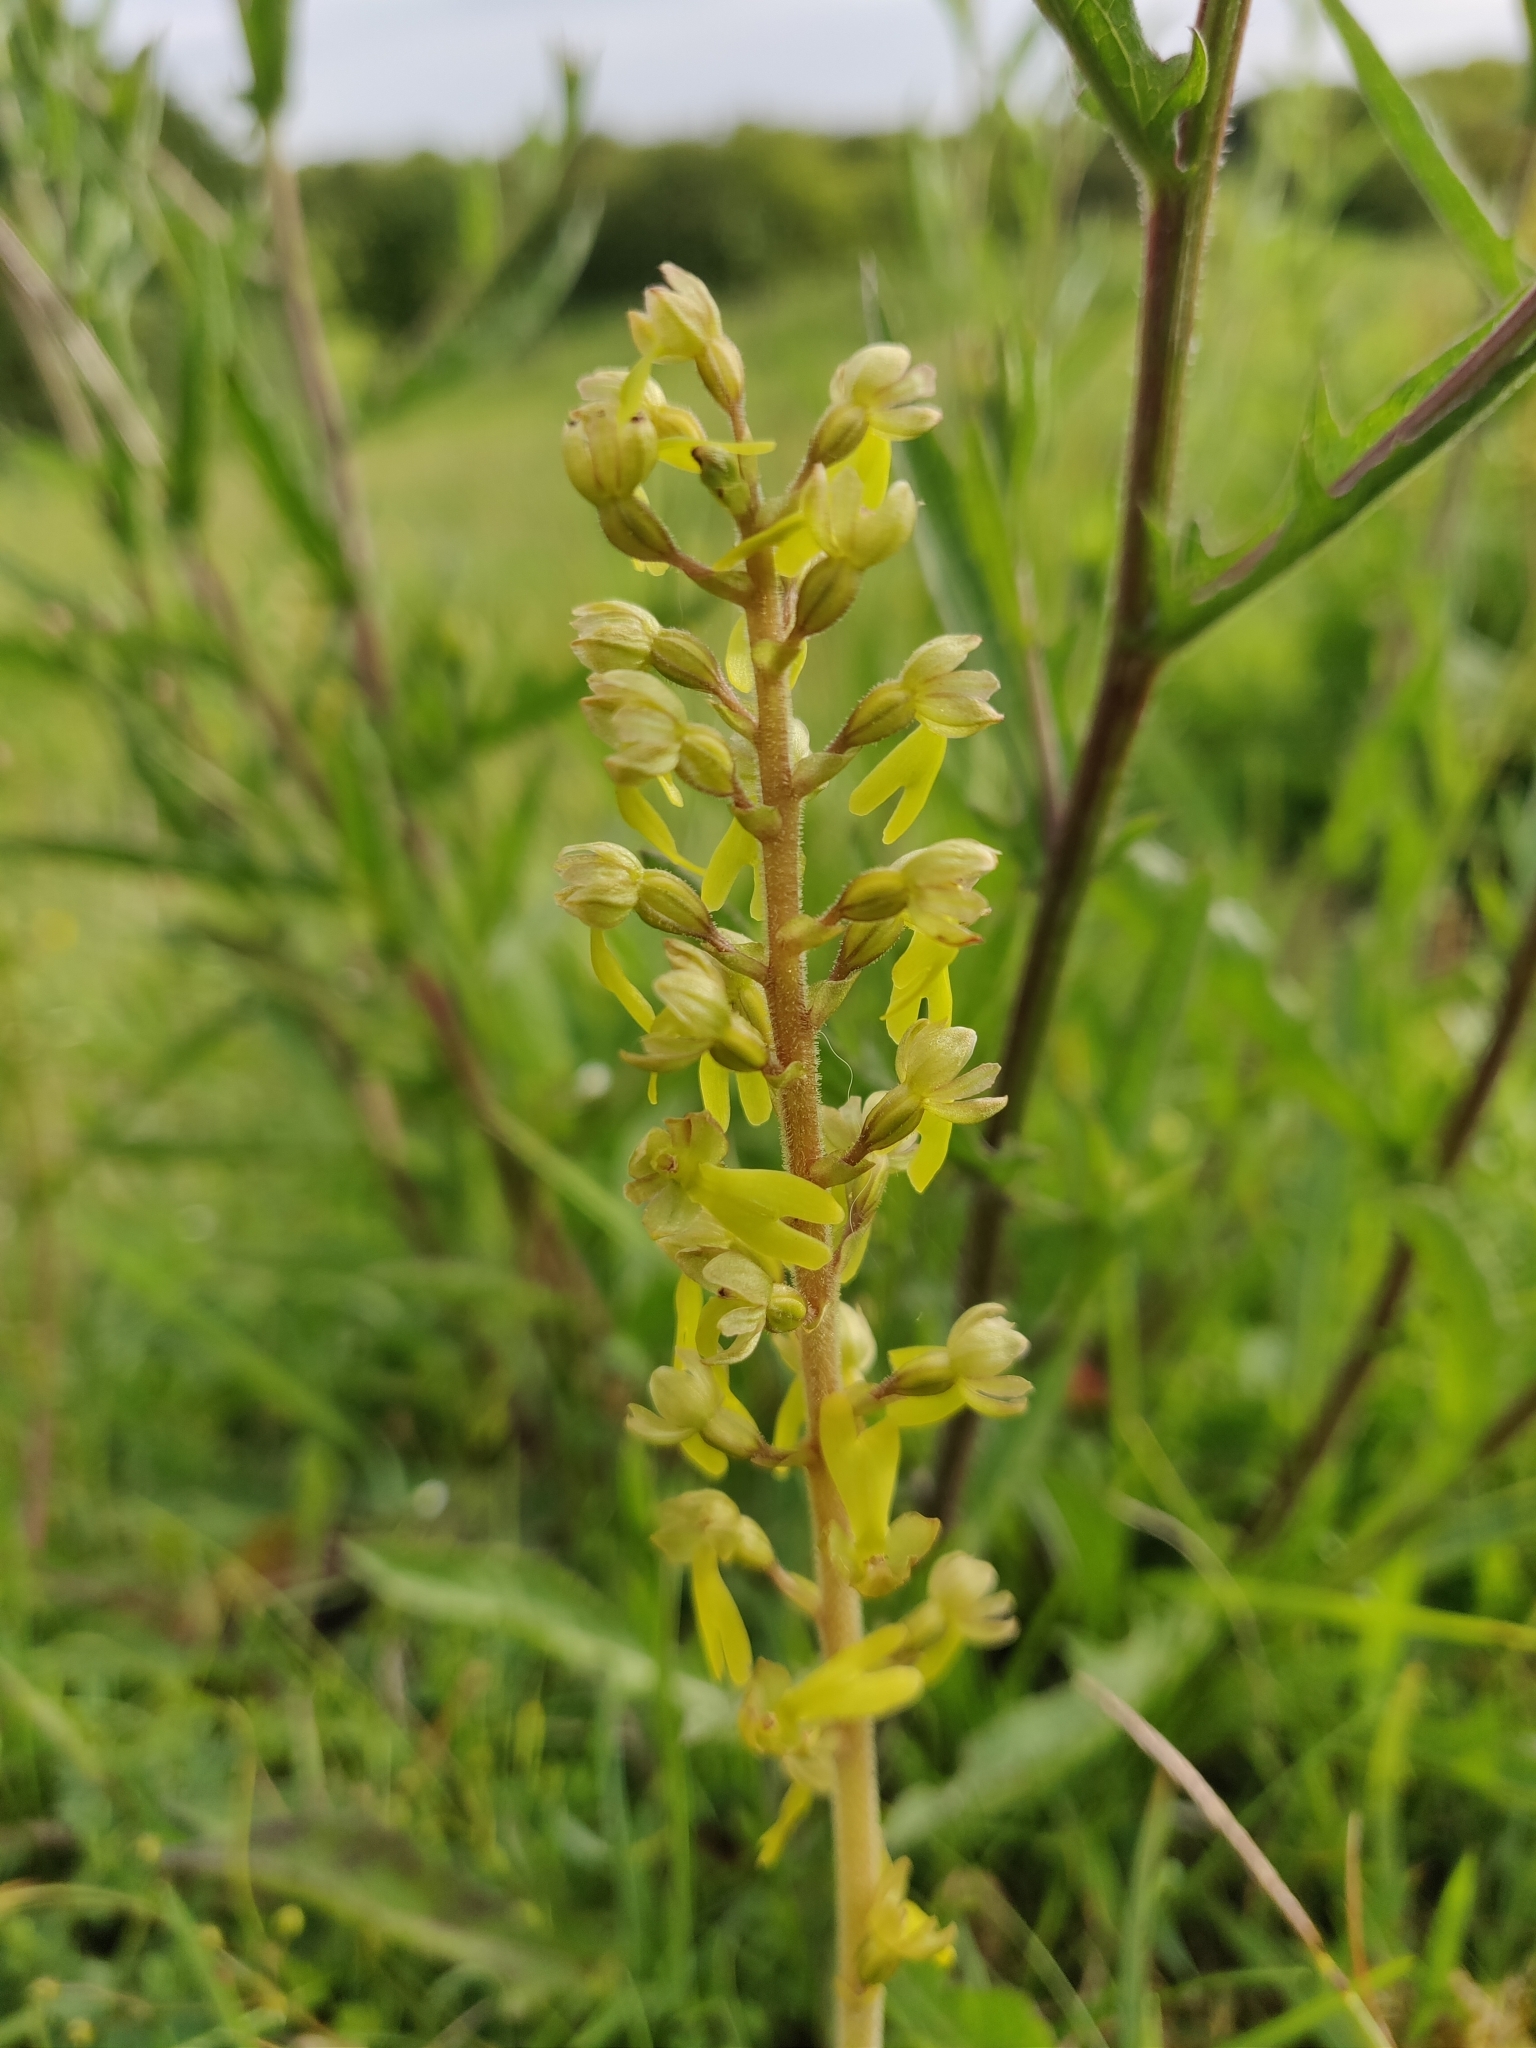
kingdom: Plantae
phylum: Tracheophyta
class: Liliopsida
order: Asparagales
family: Orchidaceae
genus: Neottia
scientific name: Neottia ovata
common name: Common twayblade
